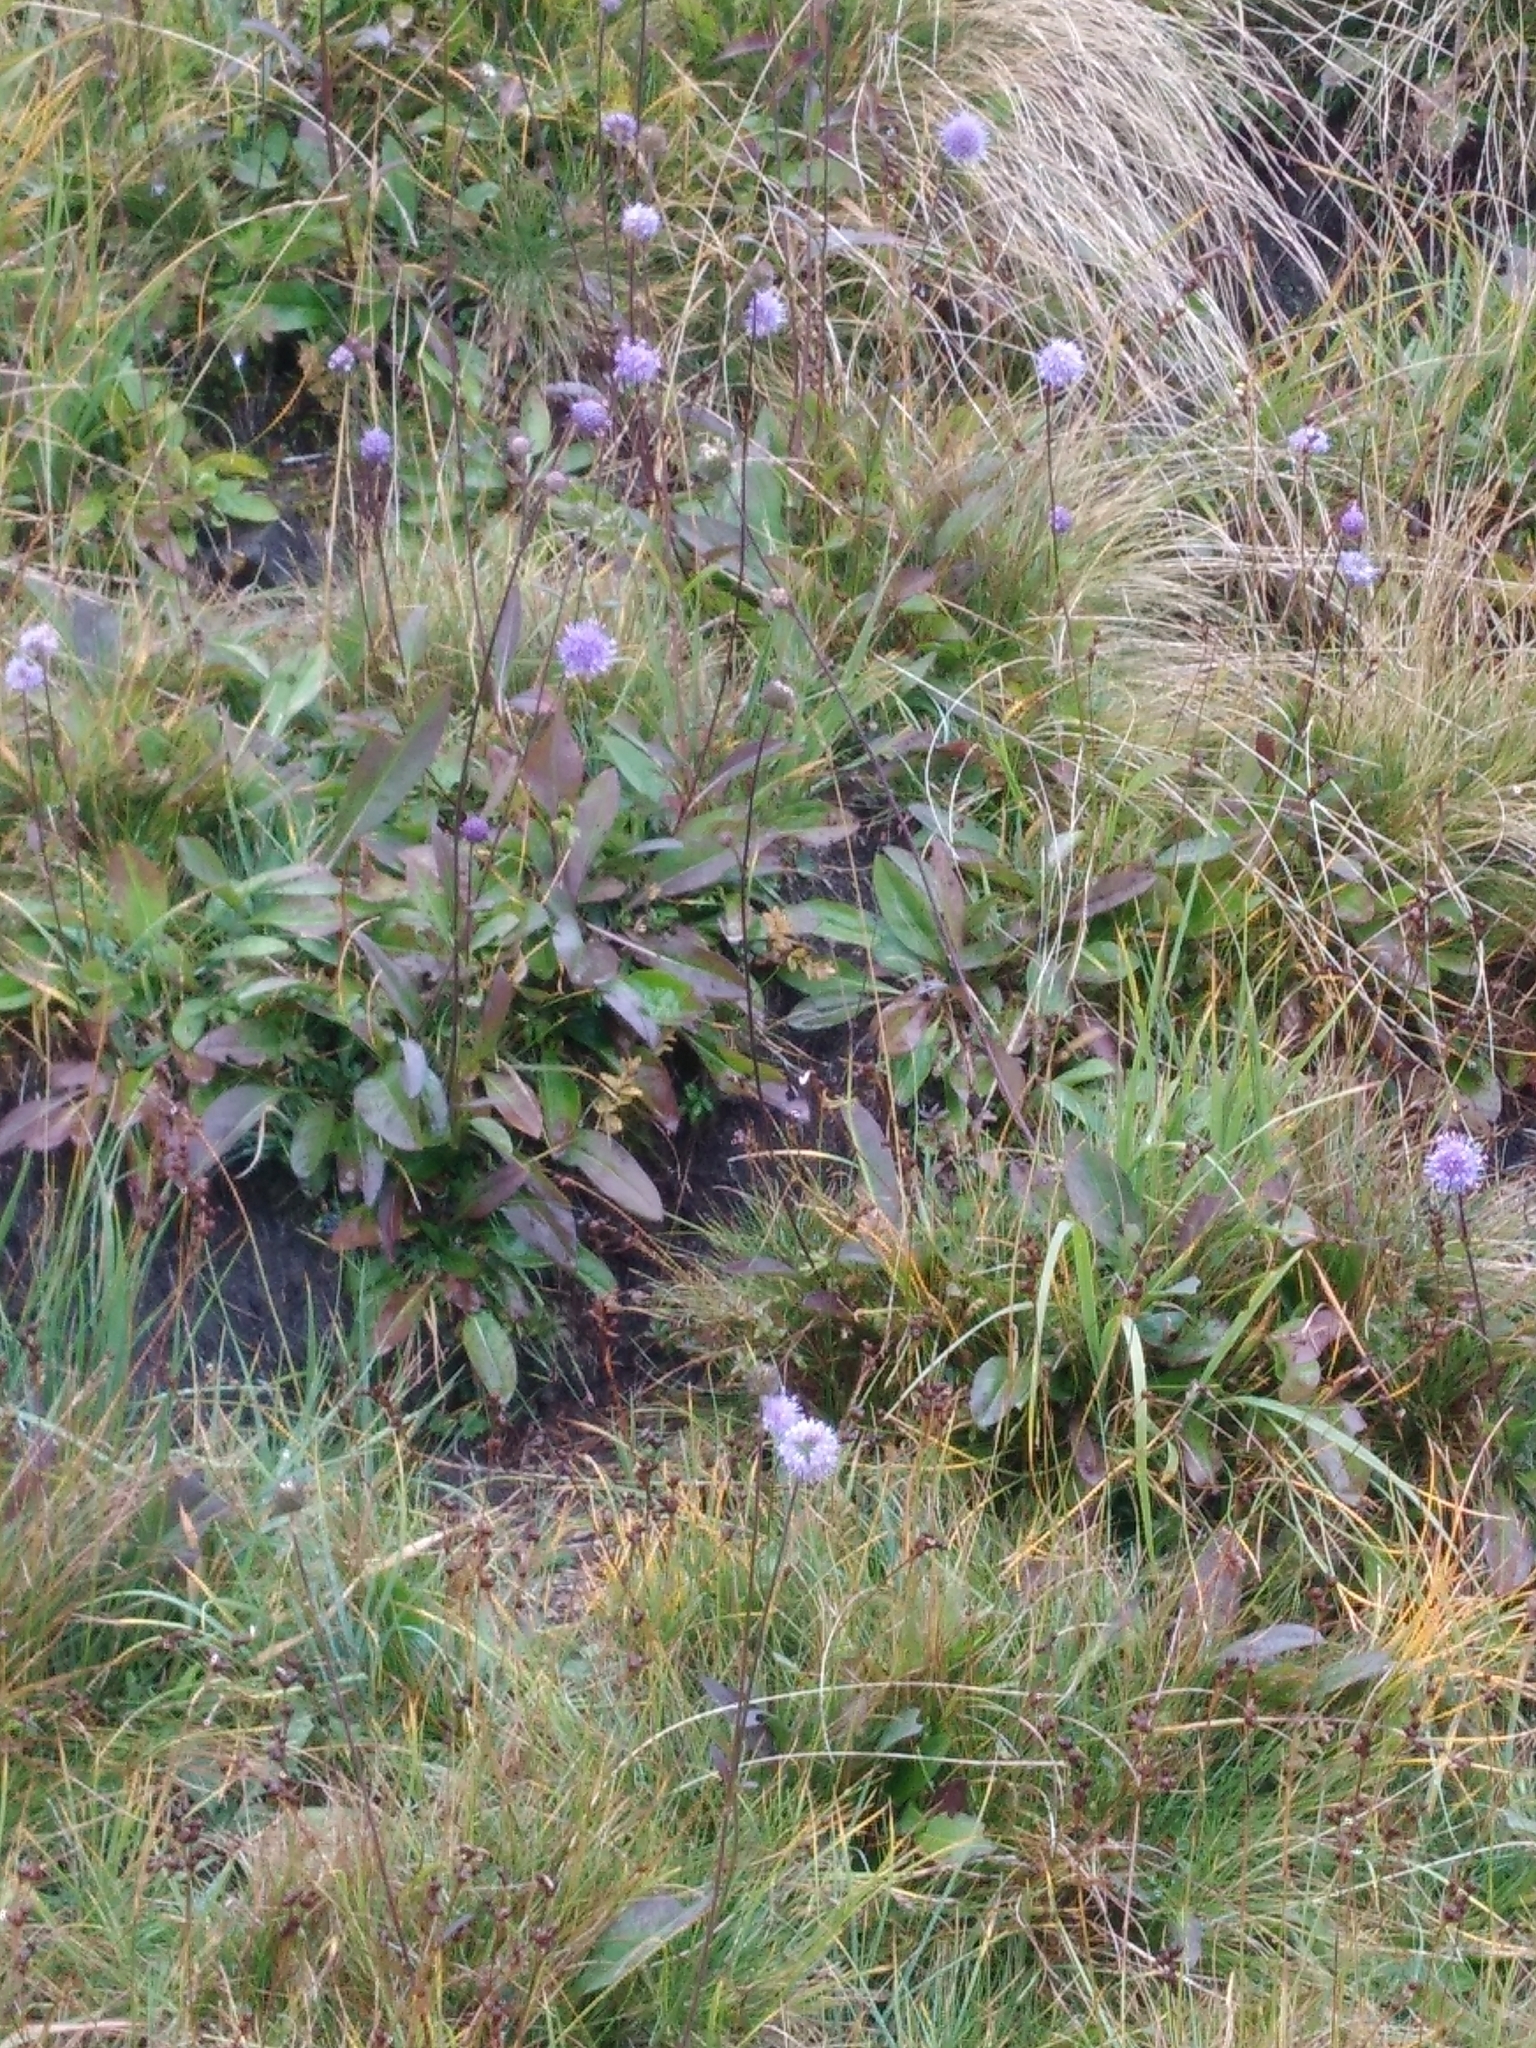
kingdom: Plantae
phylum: Tracheophyta
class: Magnoliopsida
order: Dipsacales
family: Caprifoliaceae
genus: Succisa
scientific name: Succisa pratensis
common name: Devil's-bit
